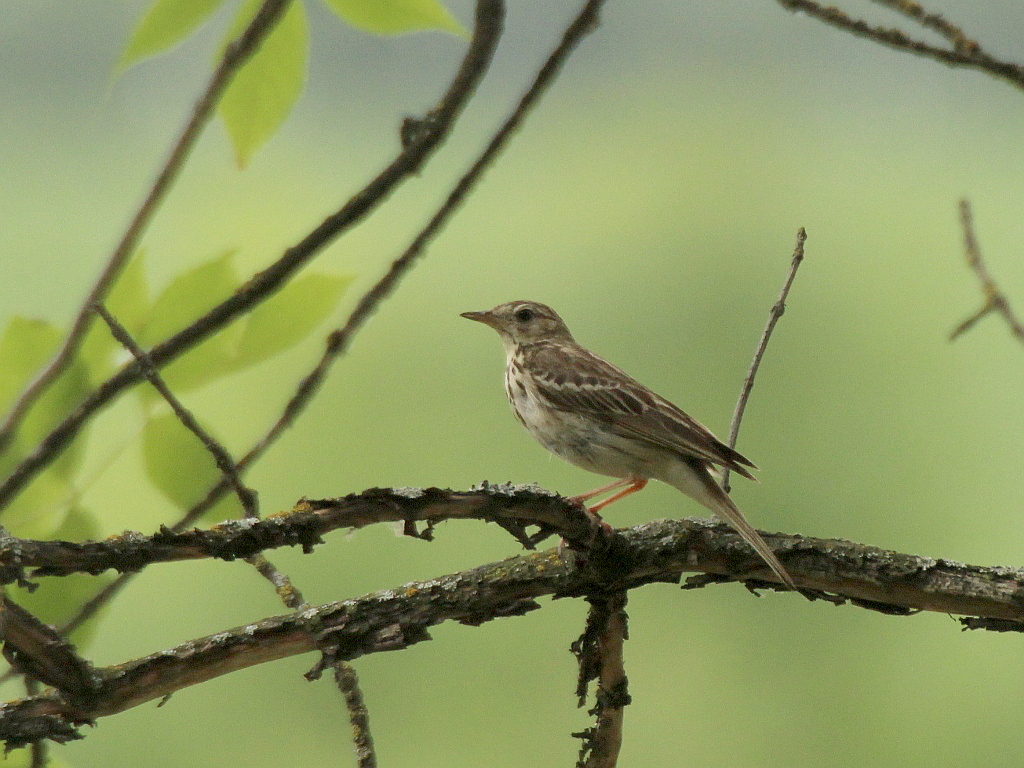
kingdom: Animalia
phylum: Chordata
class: Aves
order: Passeriformes
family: Motacillidae
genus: Anthus
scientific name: Anthus trivialis
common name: Tree pipit
